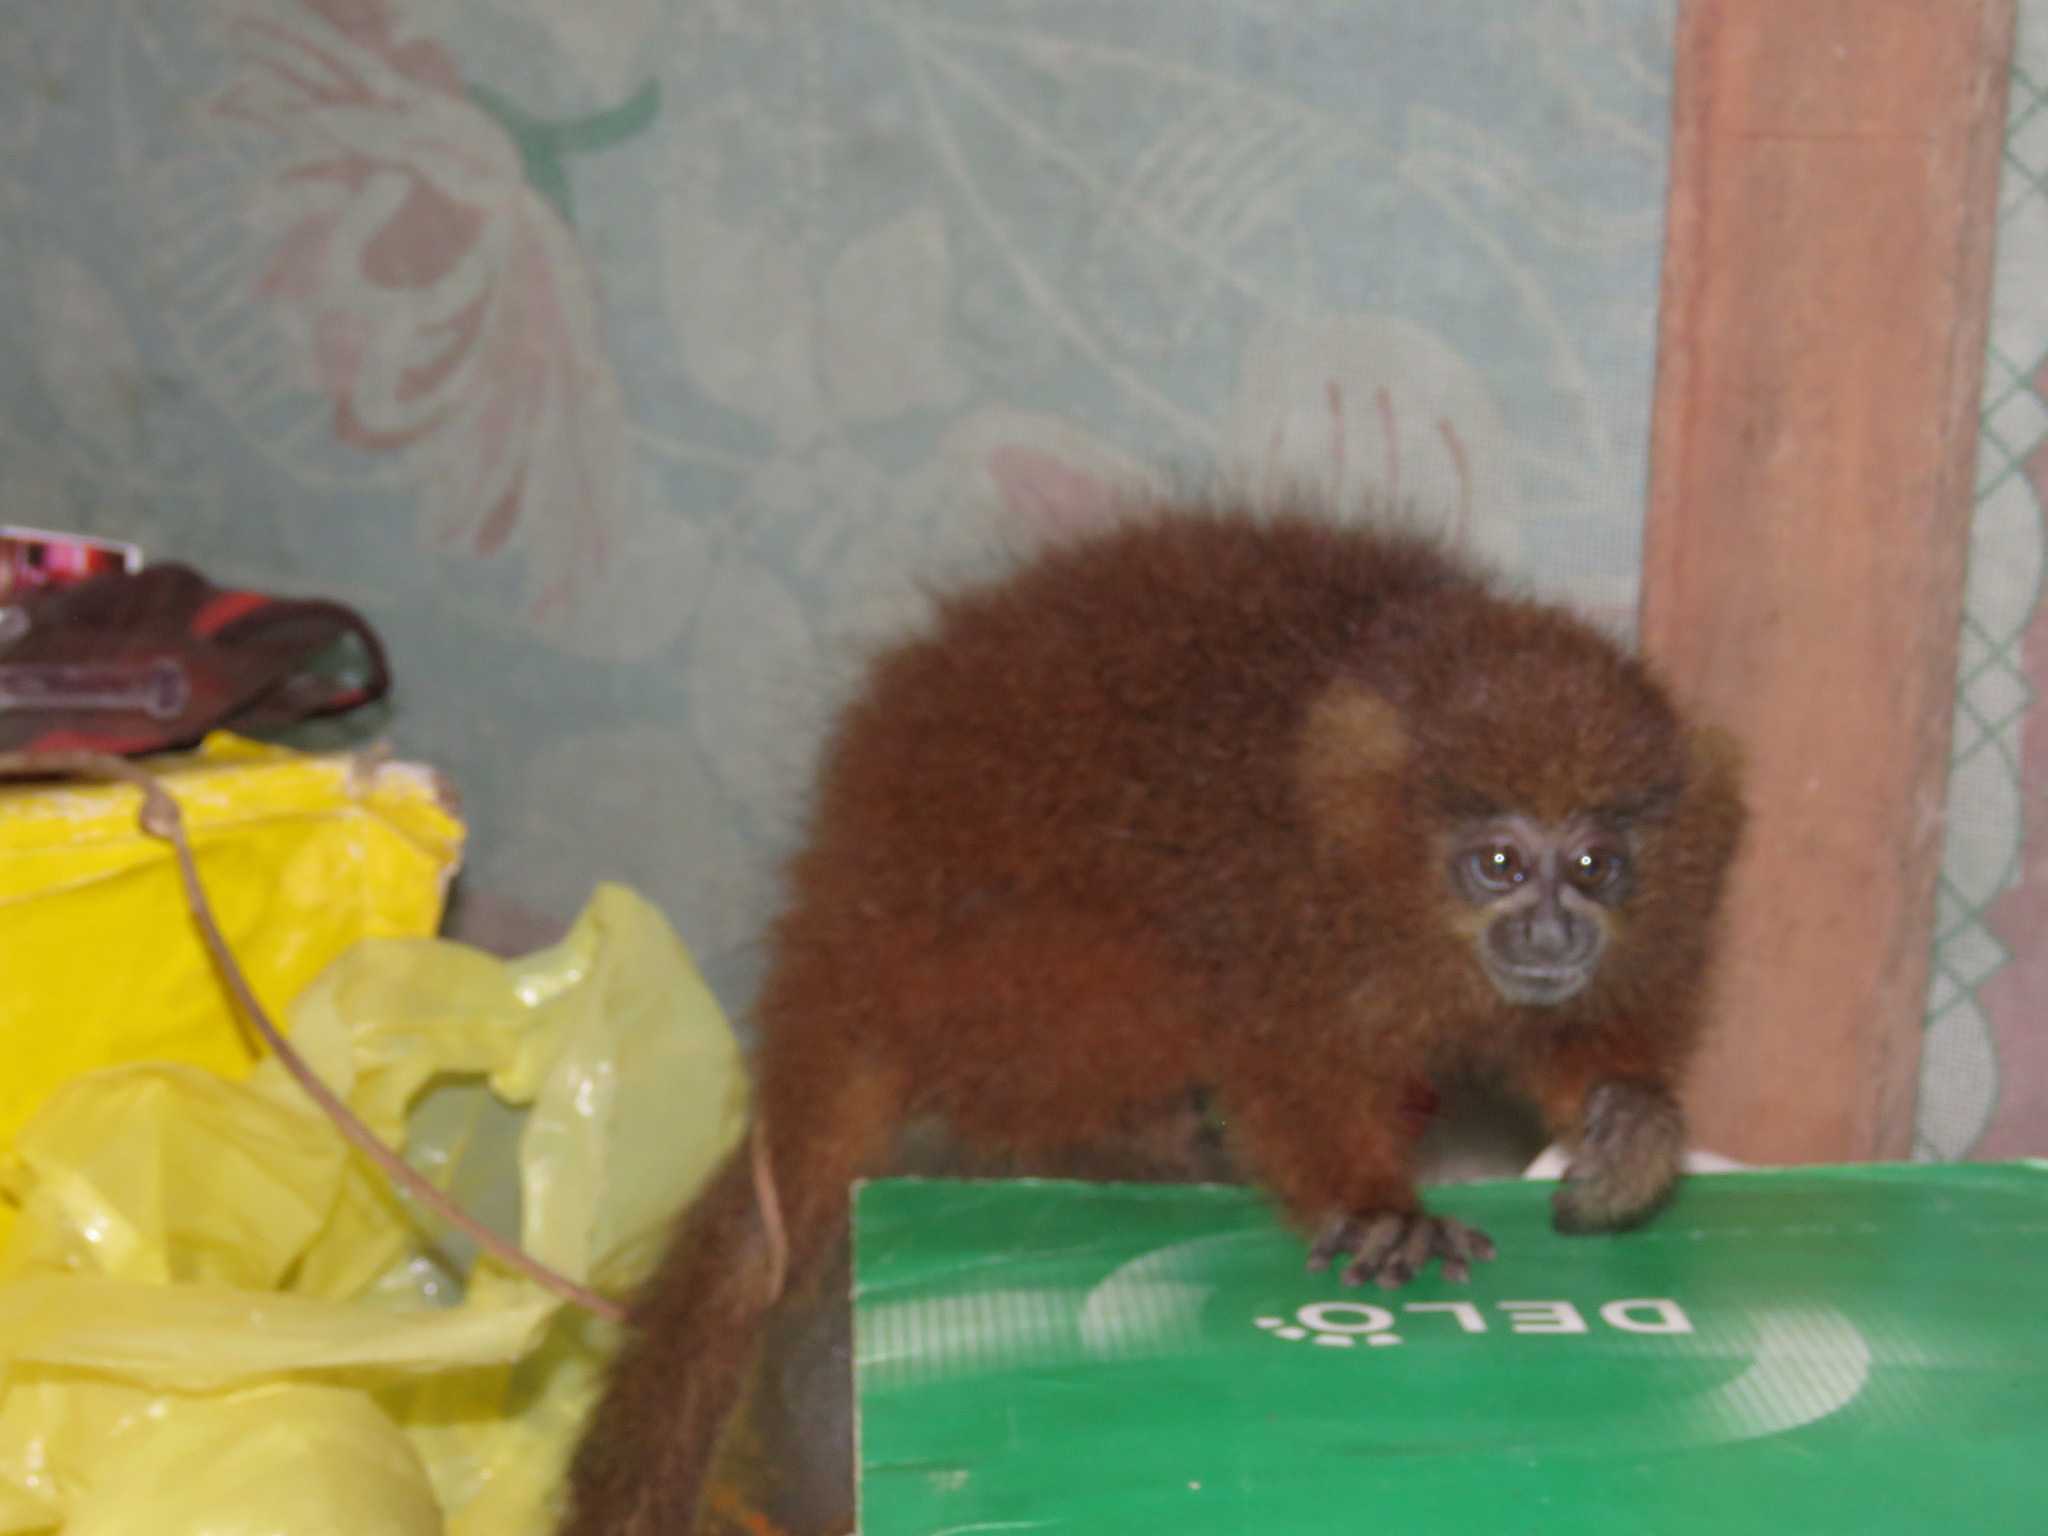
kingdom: Animalia
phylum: Chordata
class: Mammalia
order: Primates
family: Pitheciidae
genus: Plecturocebus
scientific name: Plecturocebus toppini
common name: Toppin's titi
